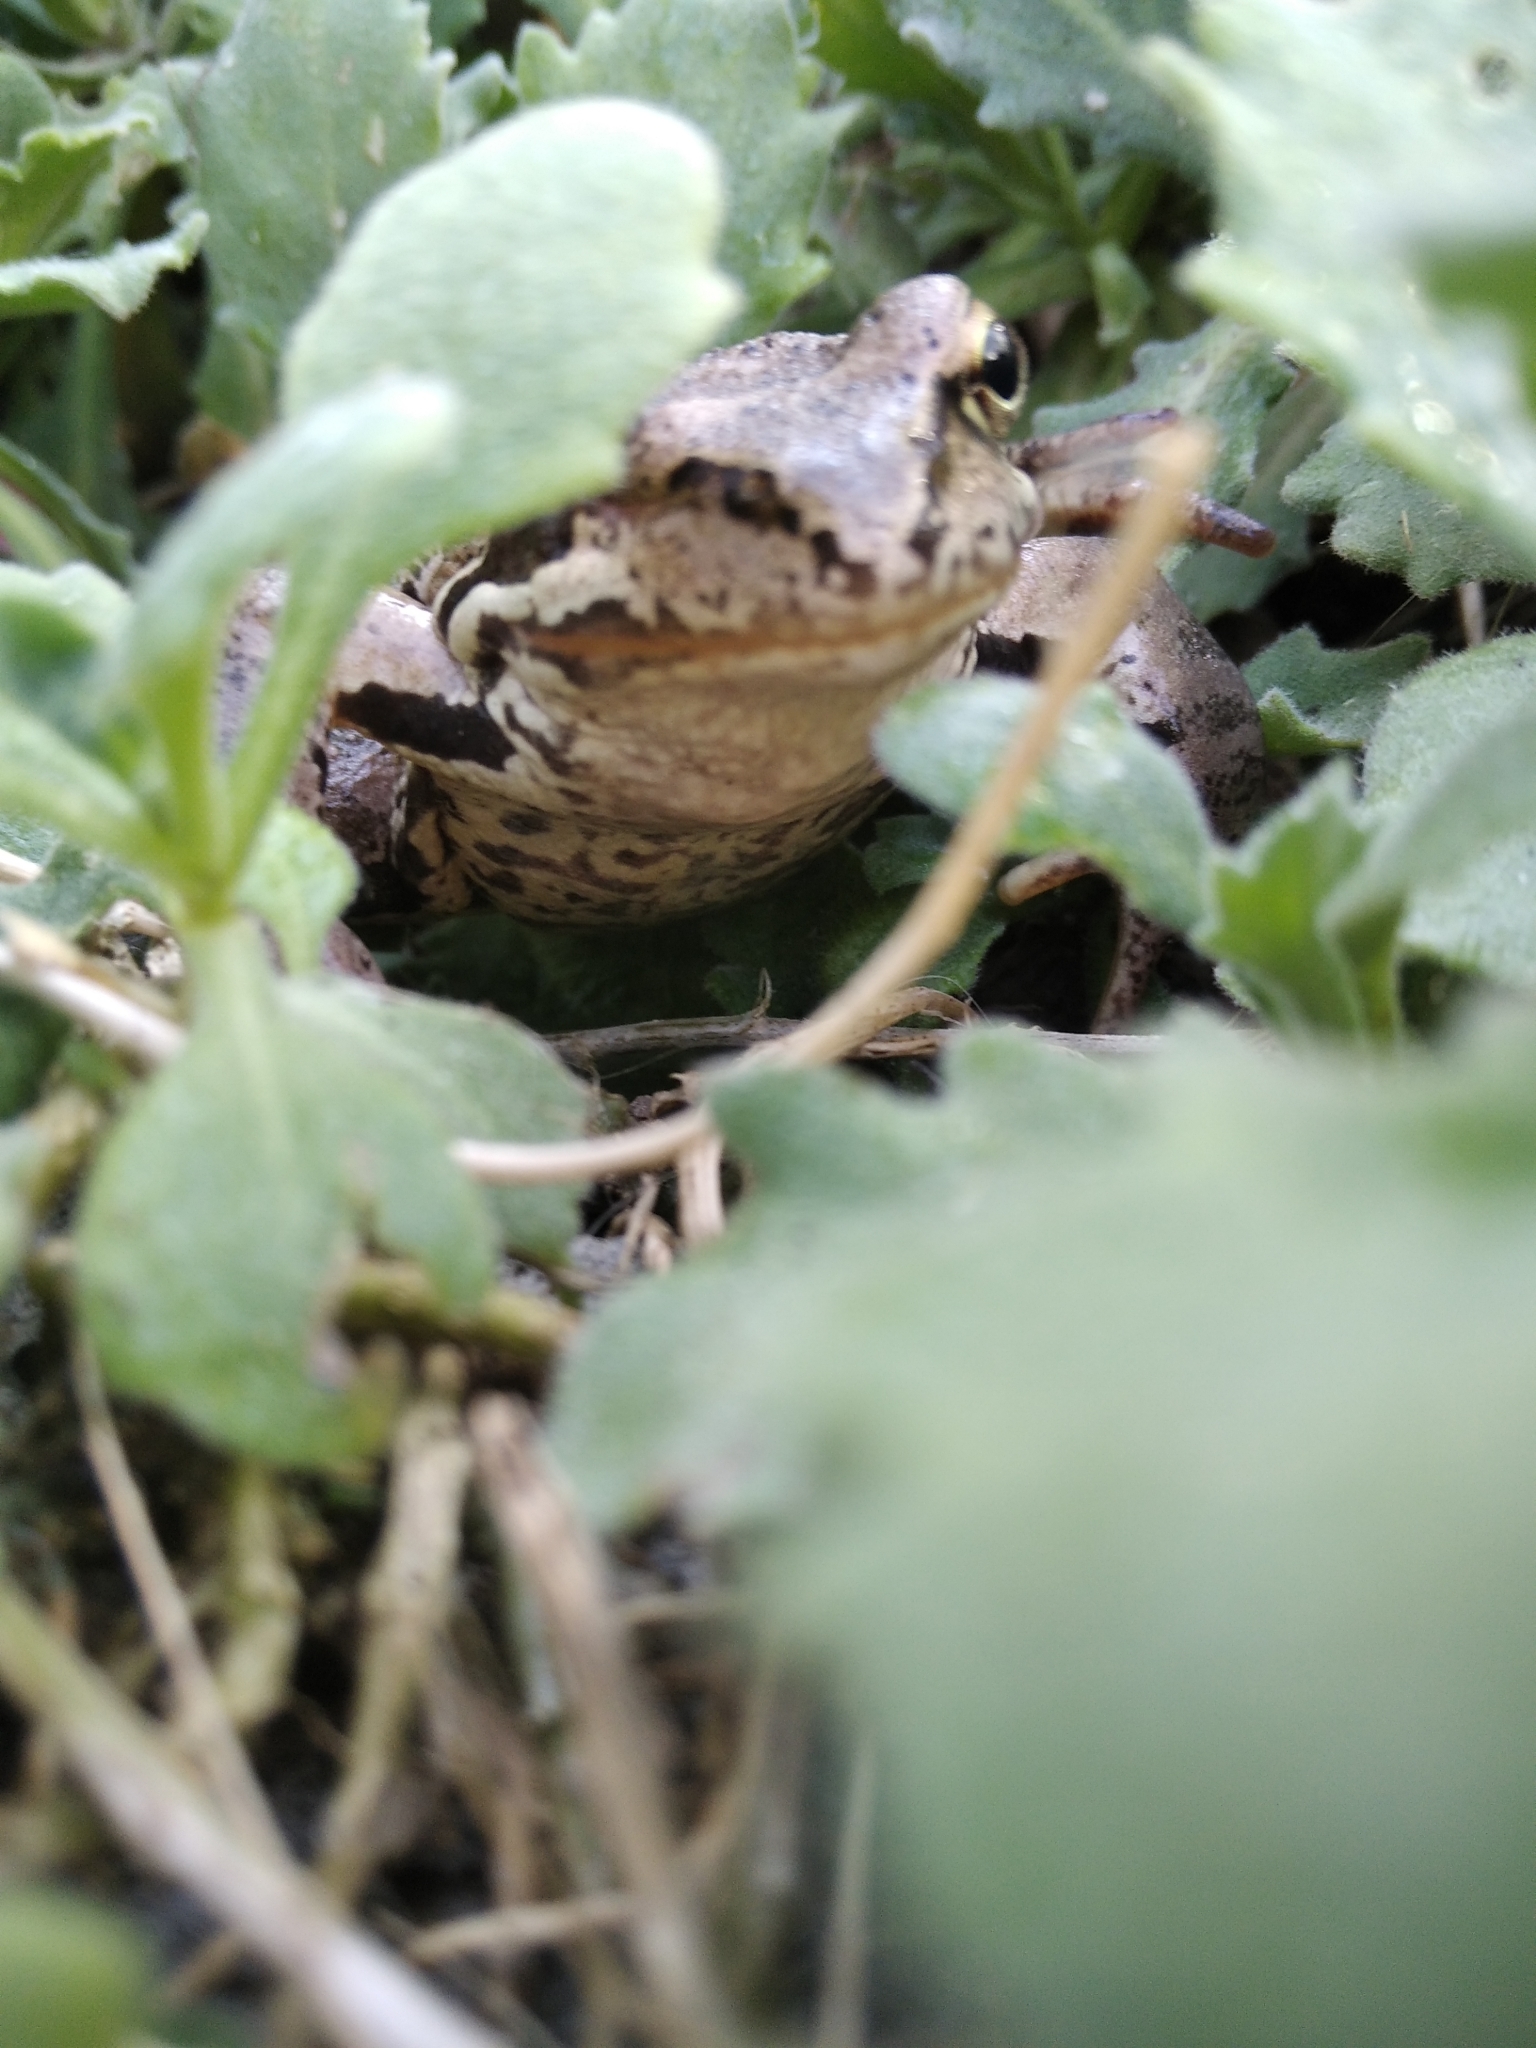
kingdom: Animalia
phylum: Chordata
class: Amphibia
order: Anura
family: Ranidae
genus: Rana
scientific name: Rana temporaria
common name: Common frog
